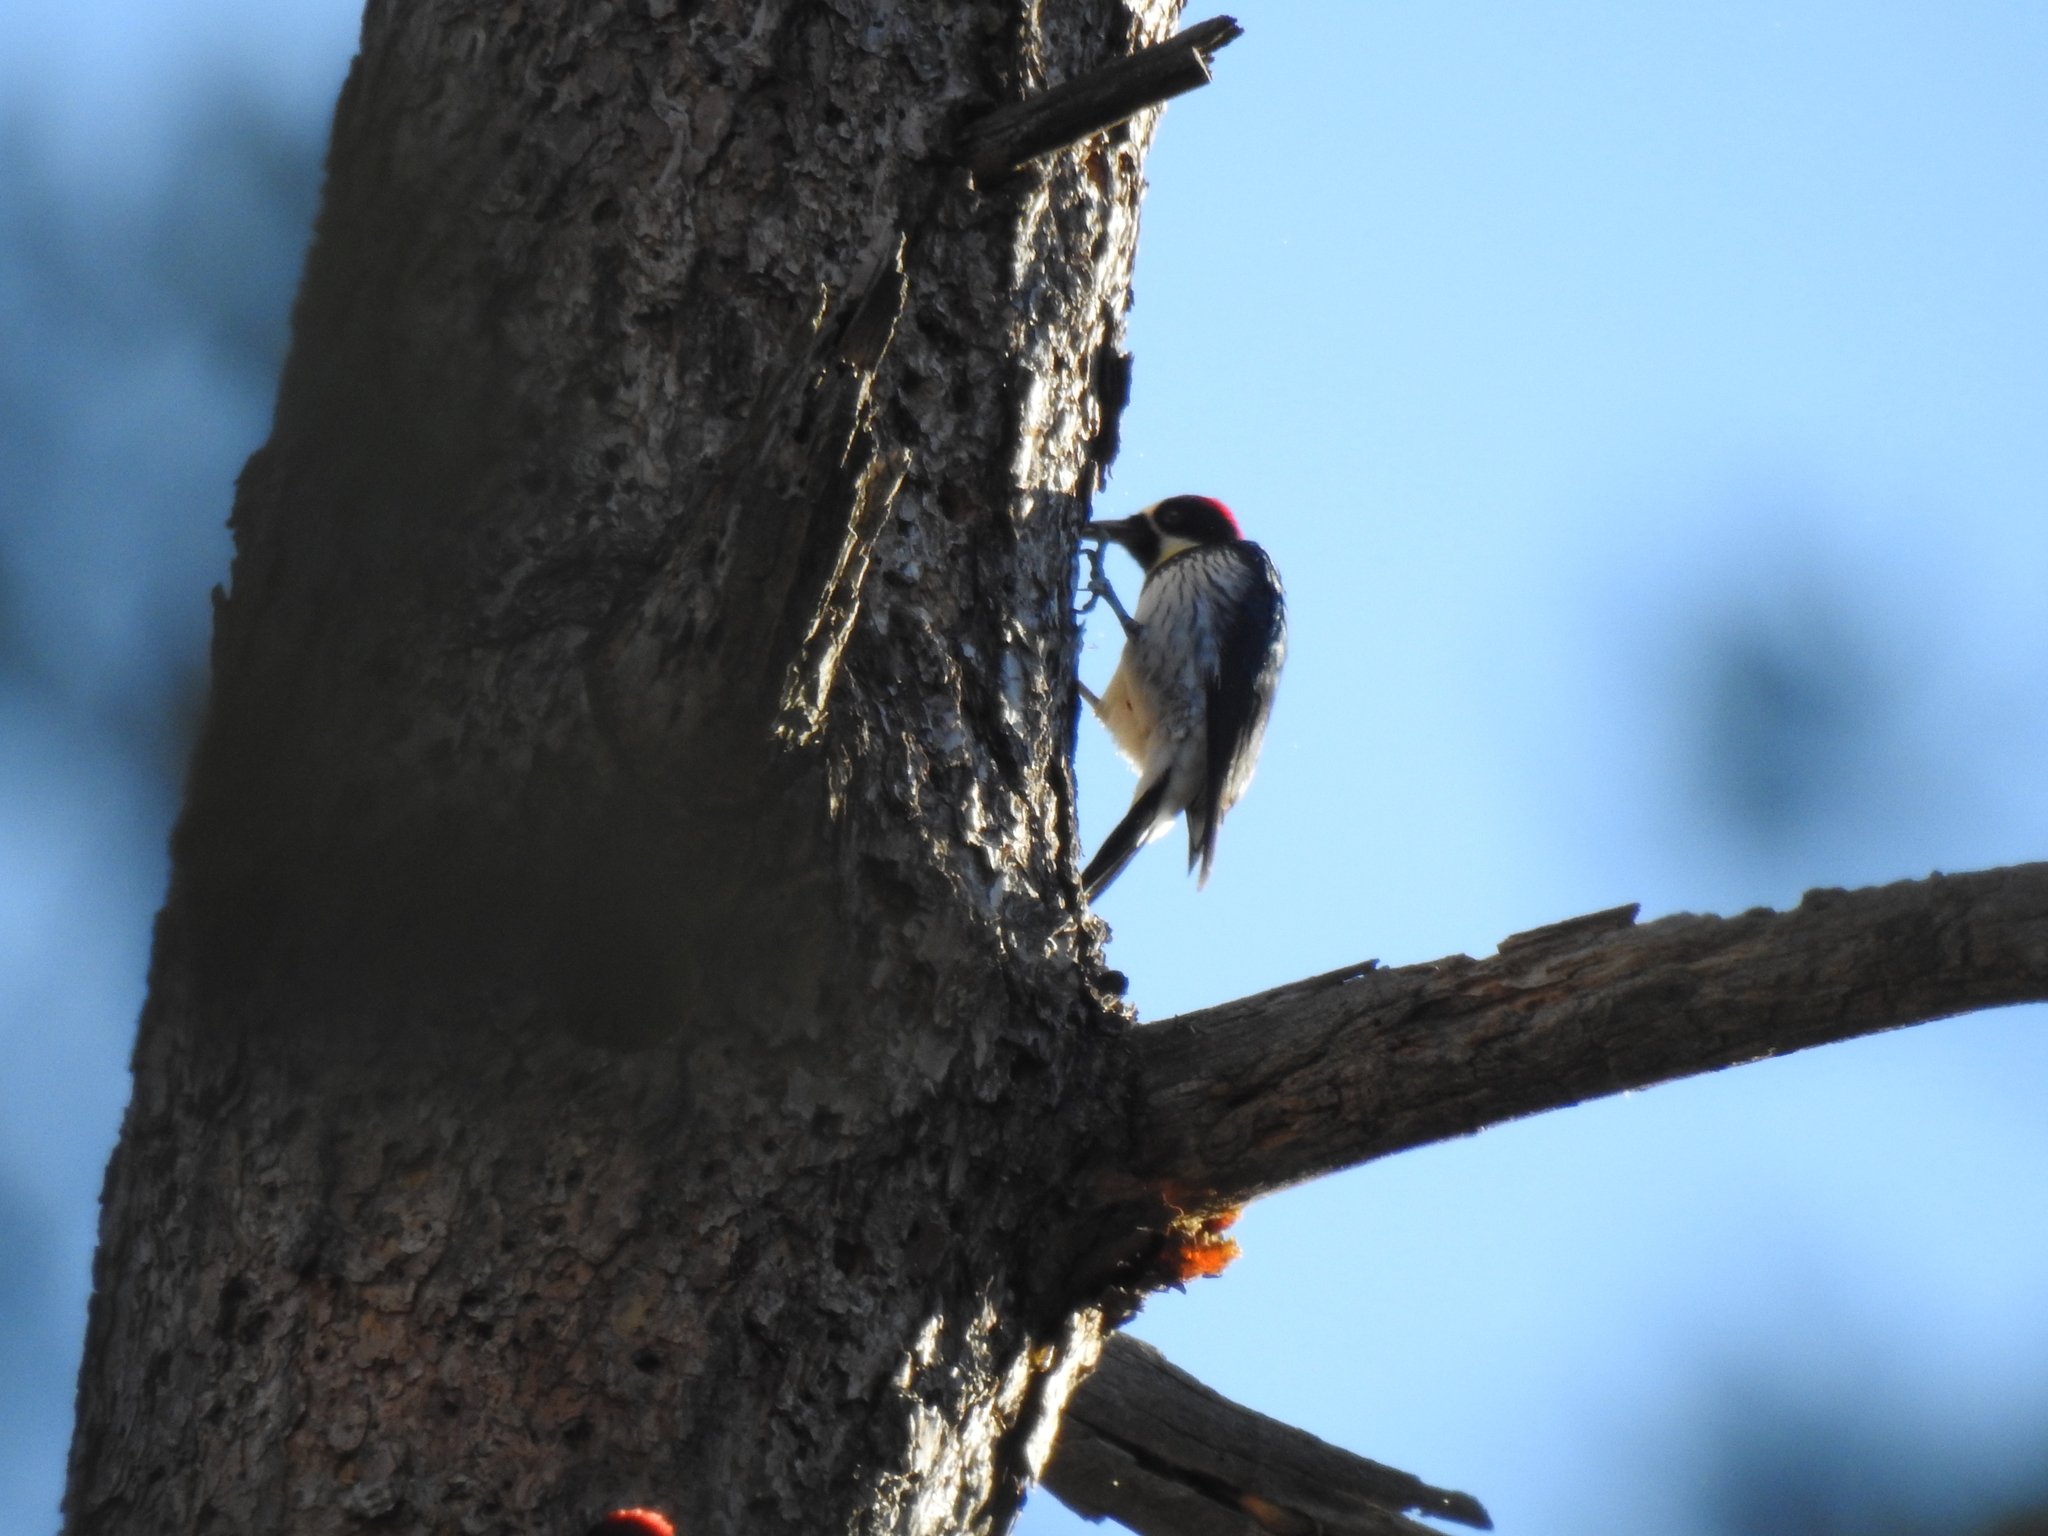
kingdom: Animalia
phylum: Chordata
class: Aves
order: Piciformes
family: Picidae
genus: Melanerpes
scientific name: Melanerpes formicivorus
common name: Acorn woodpecker
